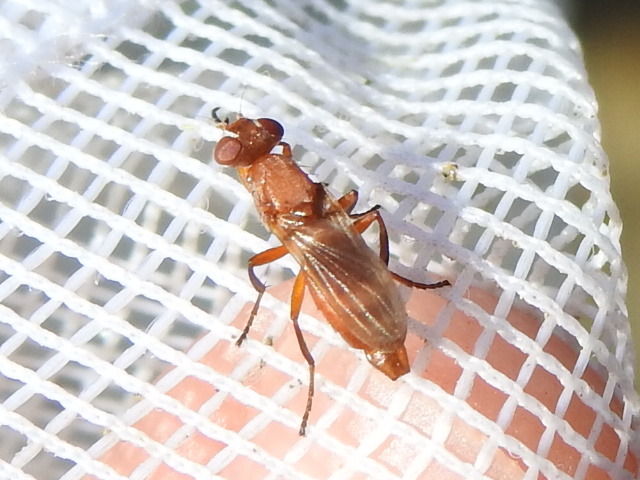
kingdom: Animalia
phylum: Arthropoda
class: Insecta
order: Diptera
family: Ulidiidae
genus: Zacompsia
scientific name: Zacompsia fulva
